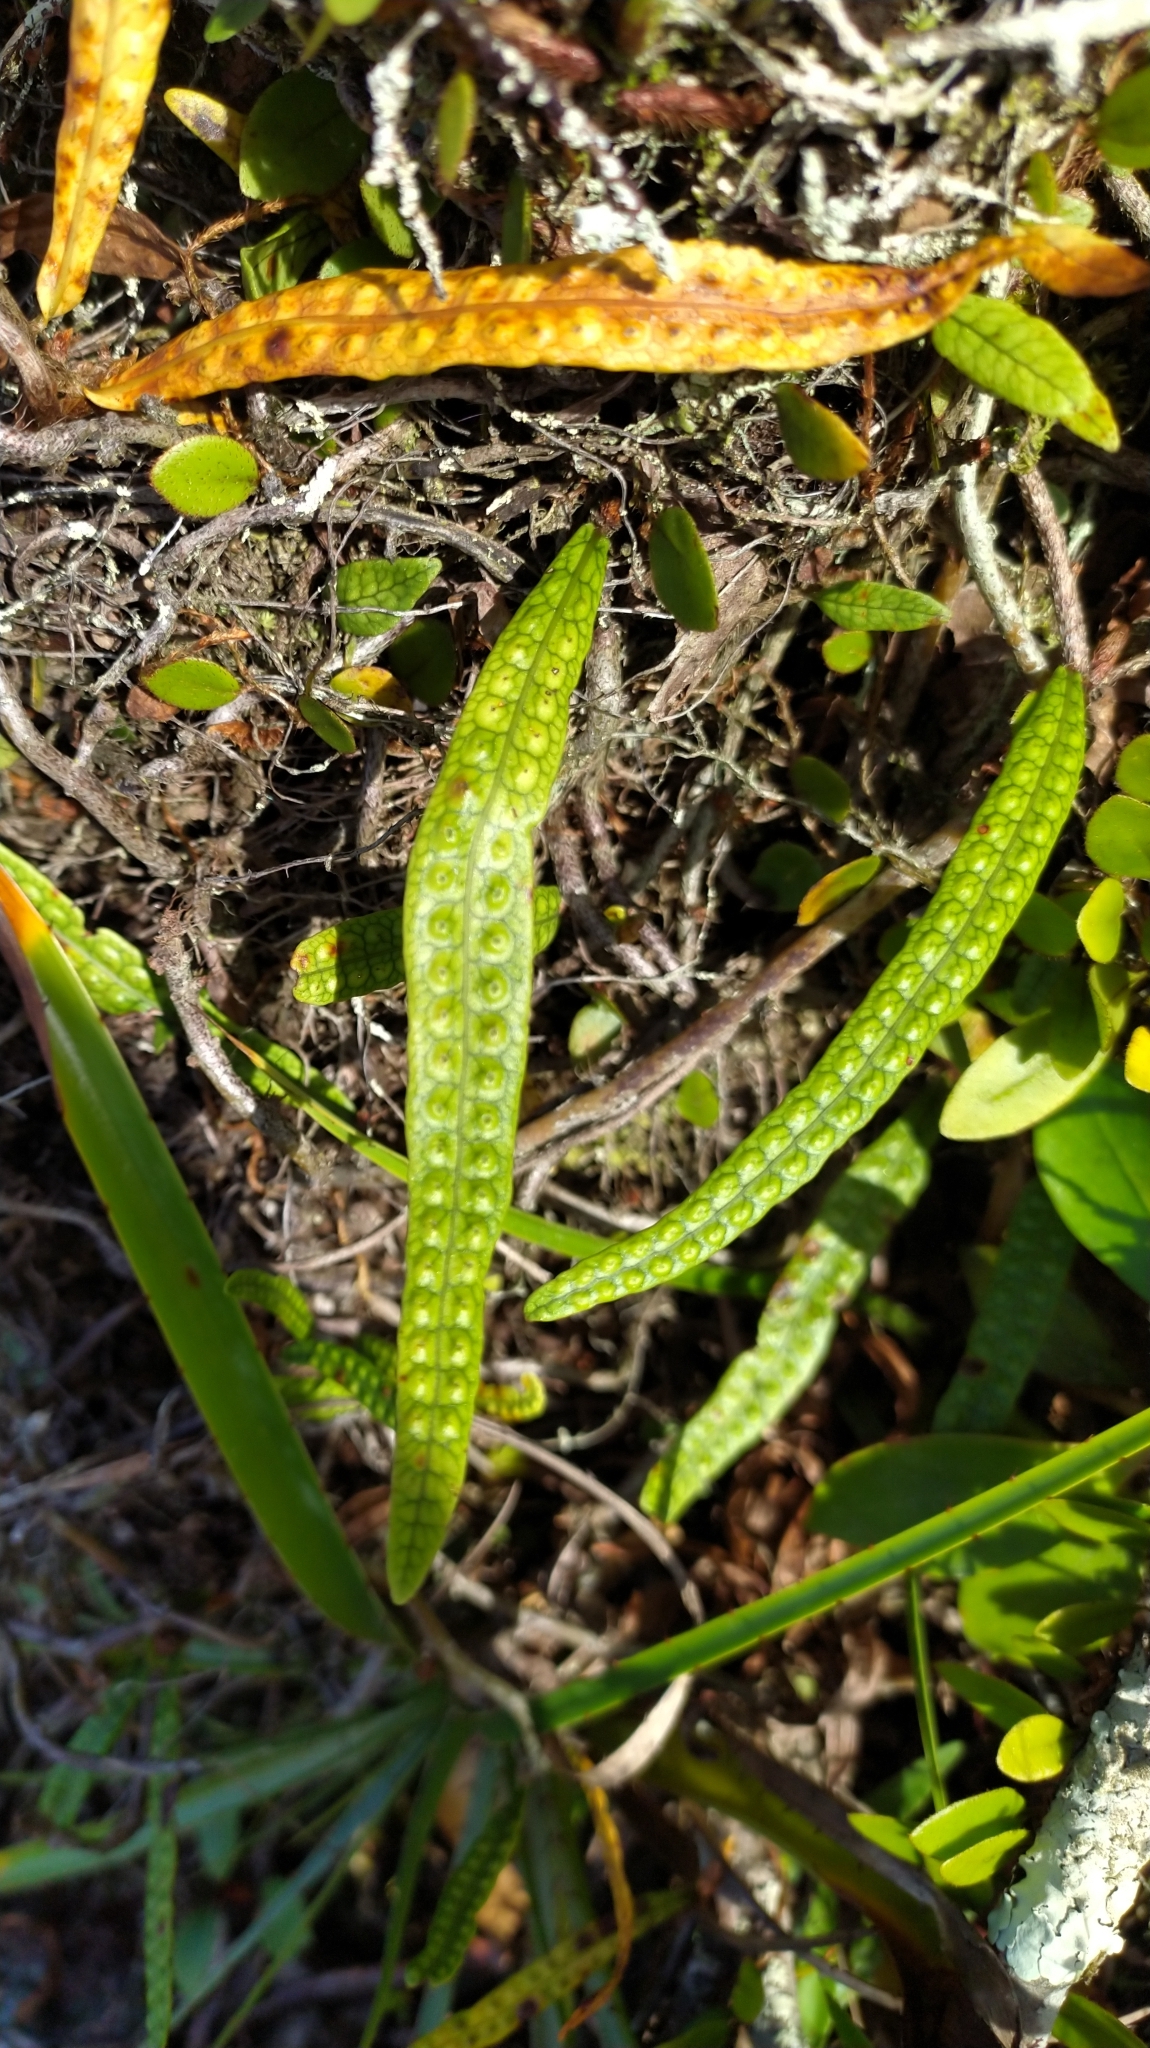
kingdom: Plantae
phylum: Tracheophyta
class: Polypodiopsida
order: Polypodiales
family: Polypodiaceae
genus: Microgramma
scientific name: Microgramma lycopodioides
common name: Bastard catclaw
